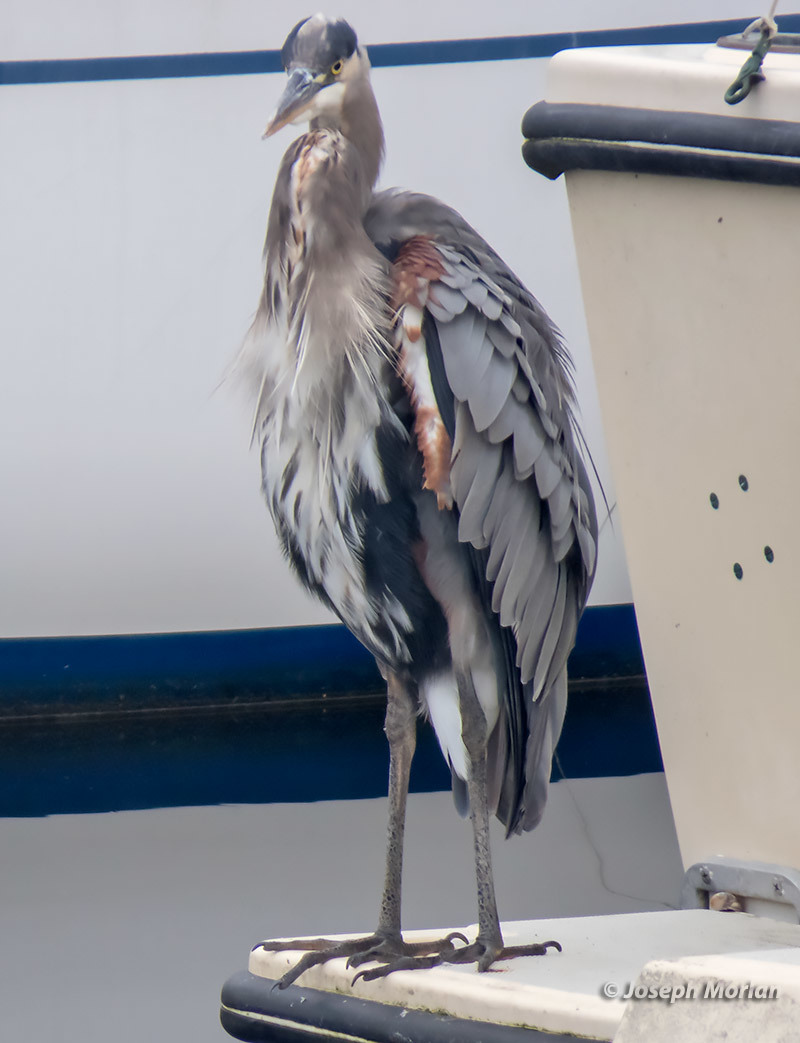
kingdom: Animalia
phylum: Chordata
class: Aves
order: Pelecaniformes
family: Ardeidae
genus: Ardea
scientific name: Ardea herodias
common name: Great blue heron
